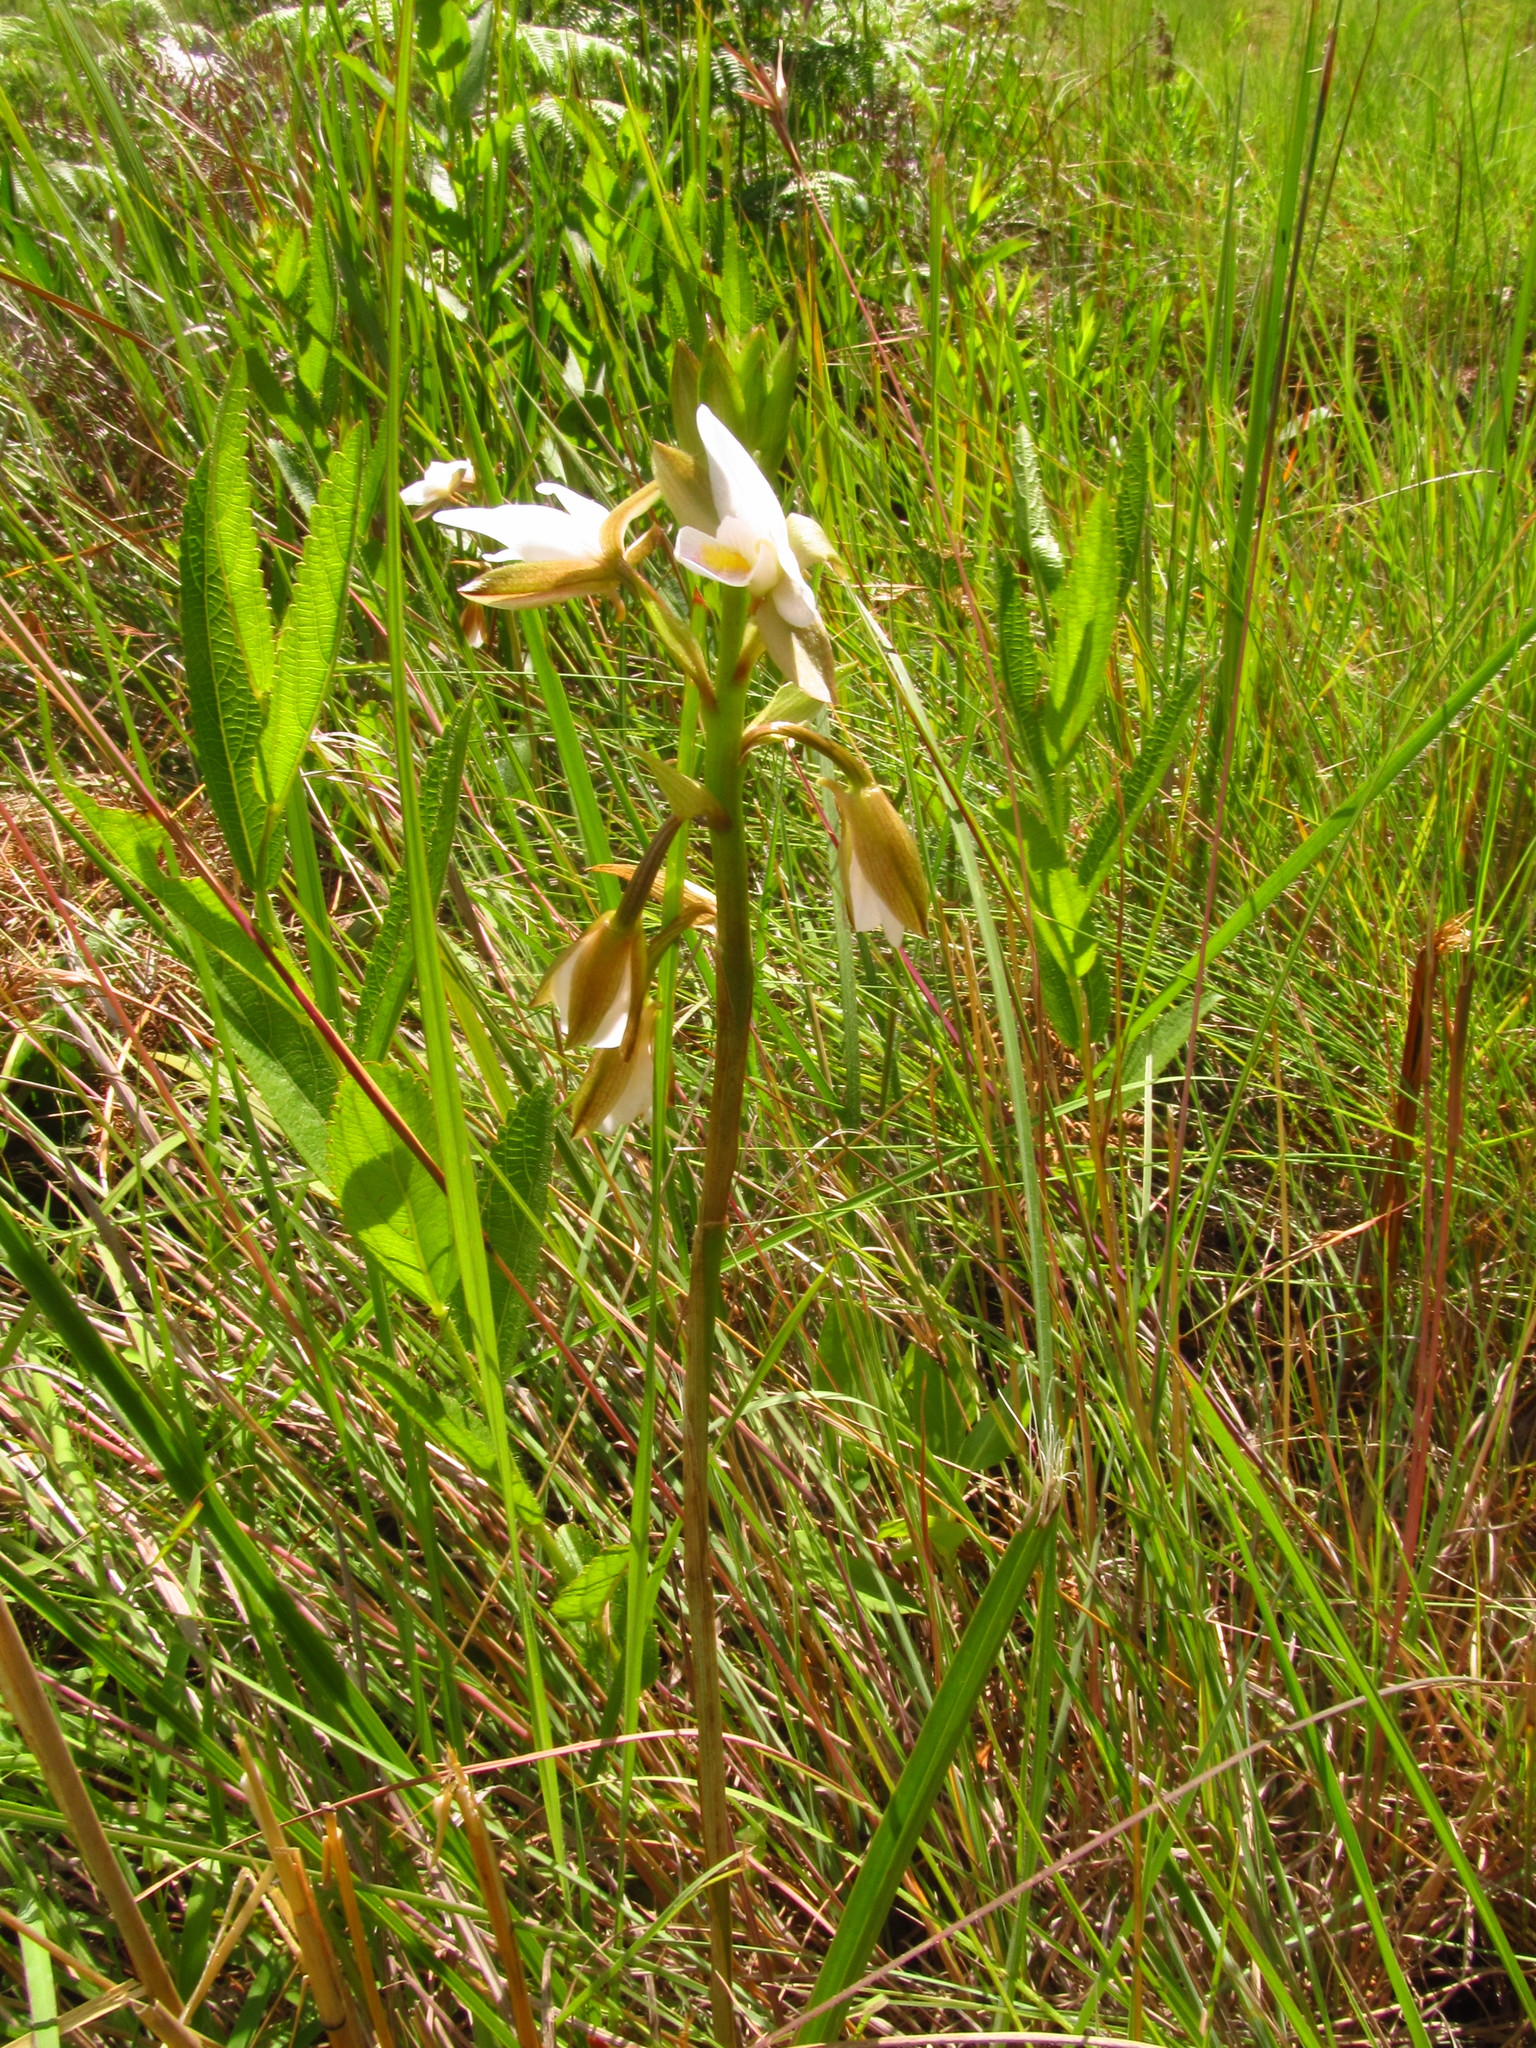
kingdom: Plantae
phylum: Tracheophyta
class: Liliopsida
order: Asparagales
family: Orchidaceae
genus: Eulophia
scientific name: Eulophia ovalis
